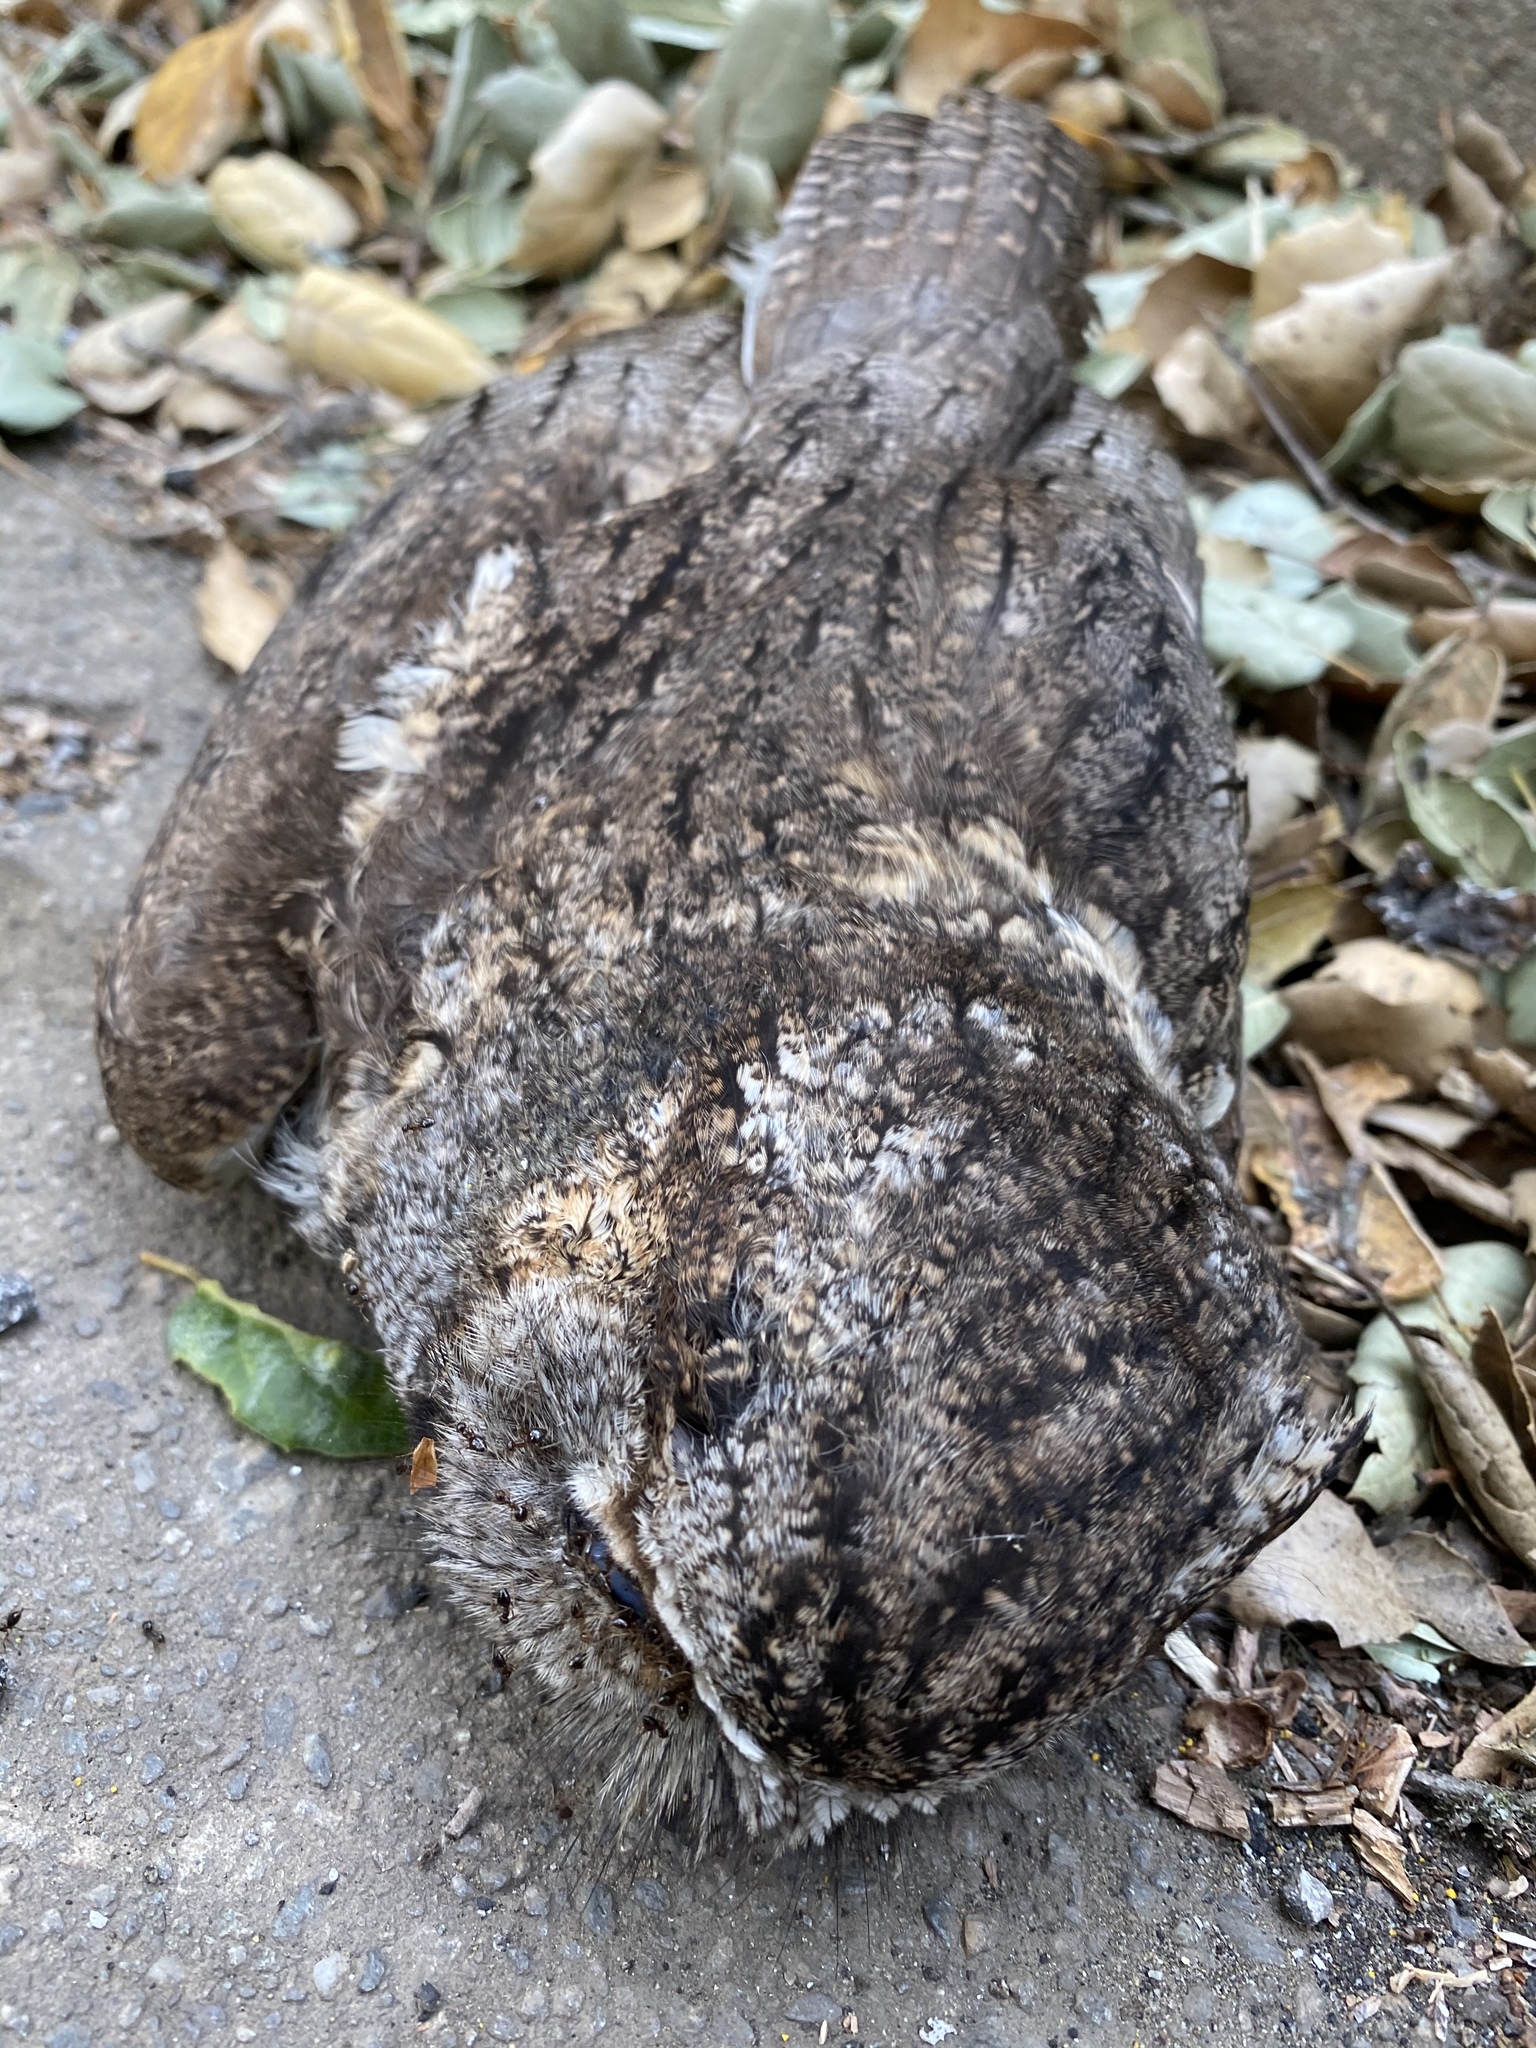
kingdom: Animalia
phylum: Chordata
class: Aves
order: Strigiformes
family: Strigidae
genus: Megascops
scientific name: Megascops kennicottii
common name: Western screech-owl
